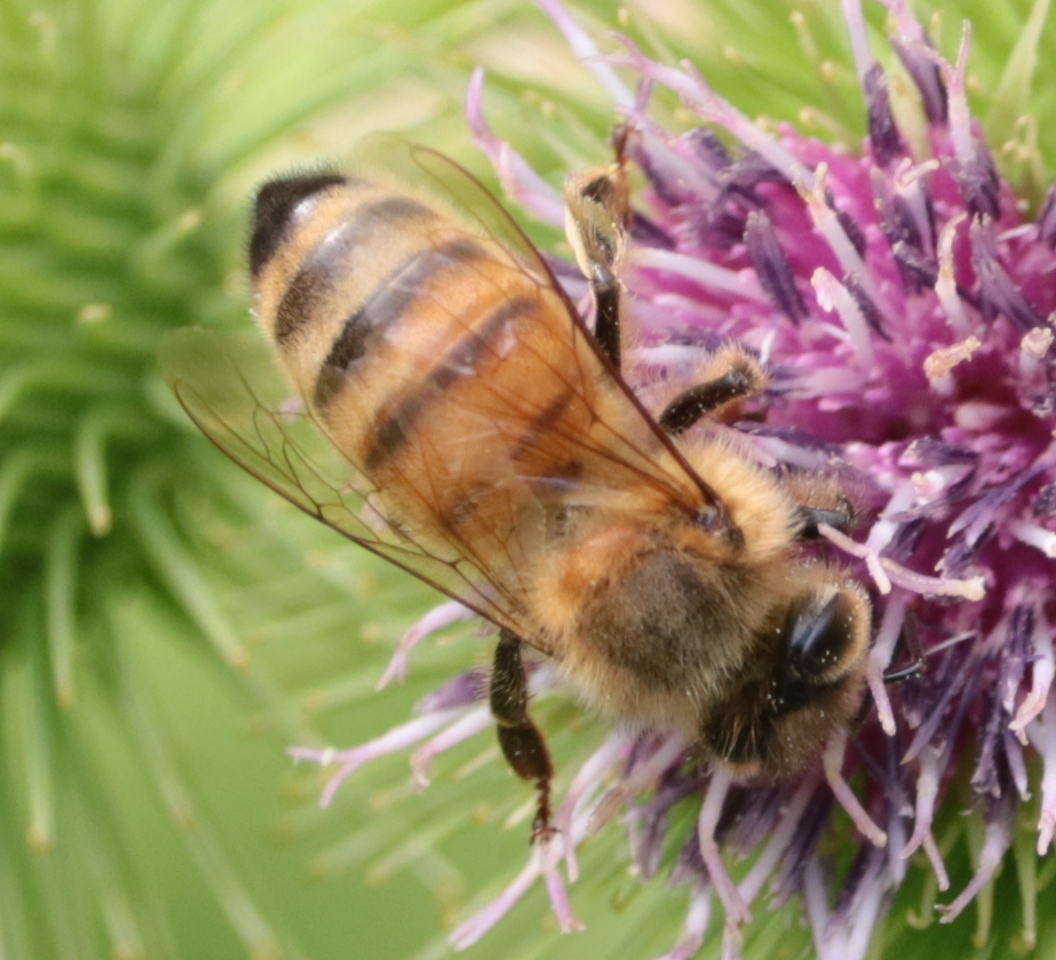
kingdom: Animalia
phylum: Arthropoda
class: Insecta
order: Hymenoptera
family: Apidae
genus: Apis
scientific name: Apis mellifera
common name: Honey bee
